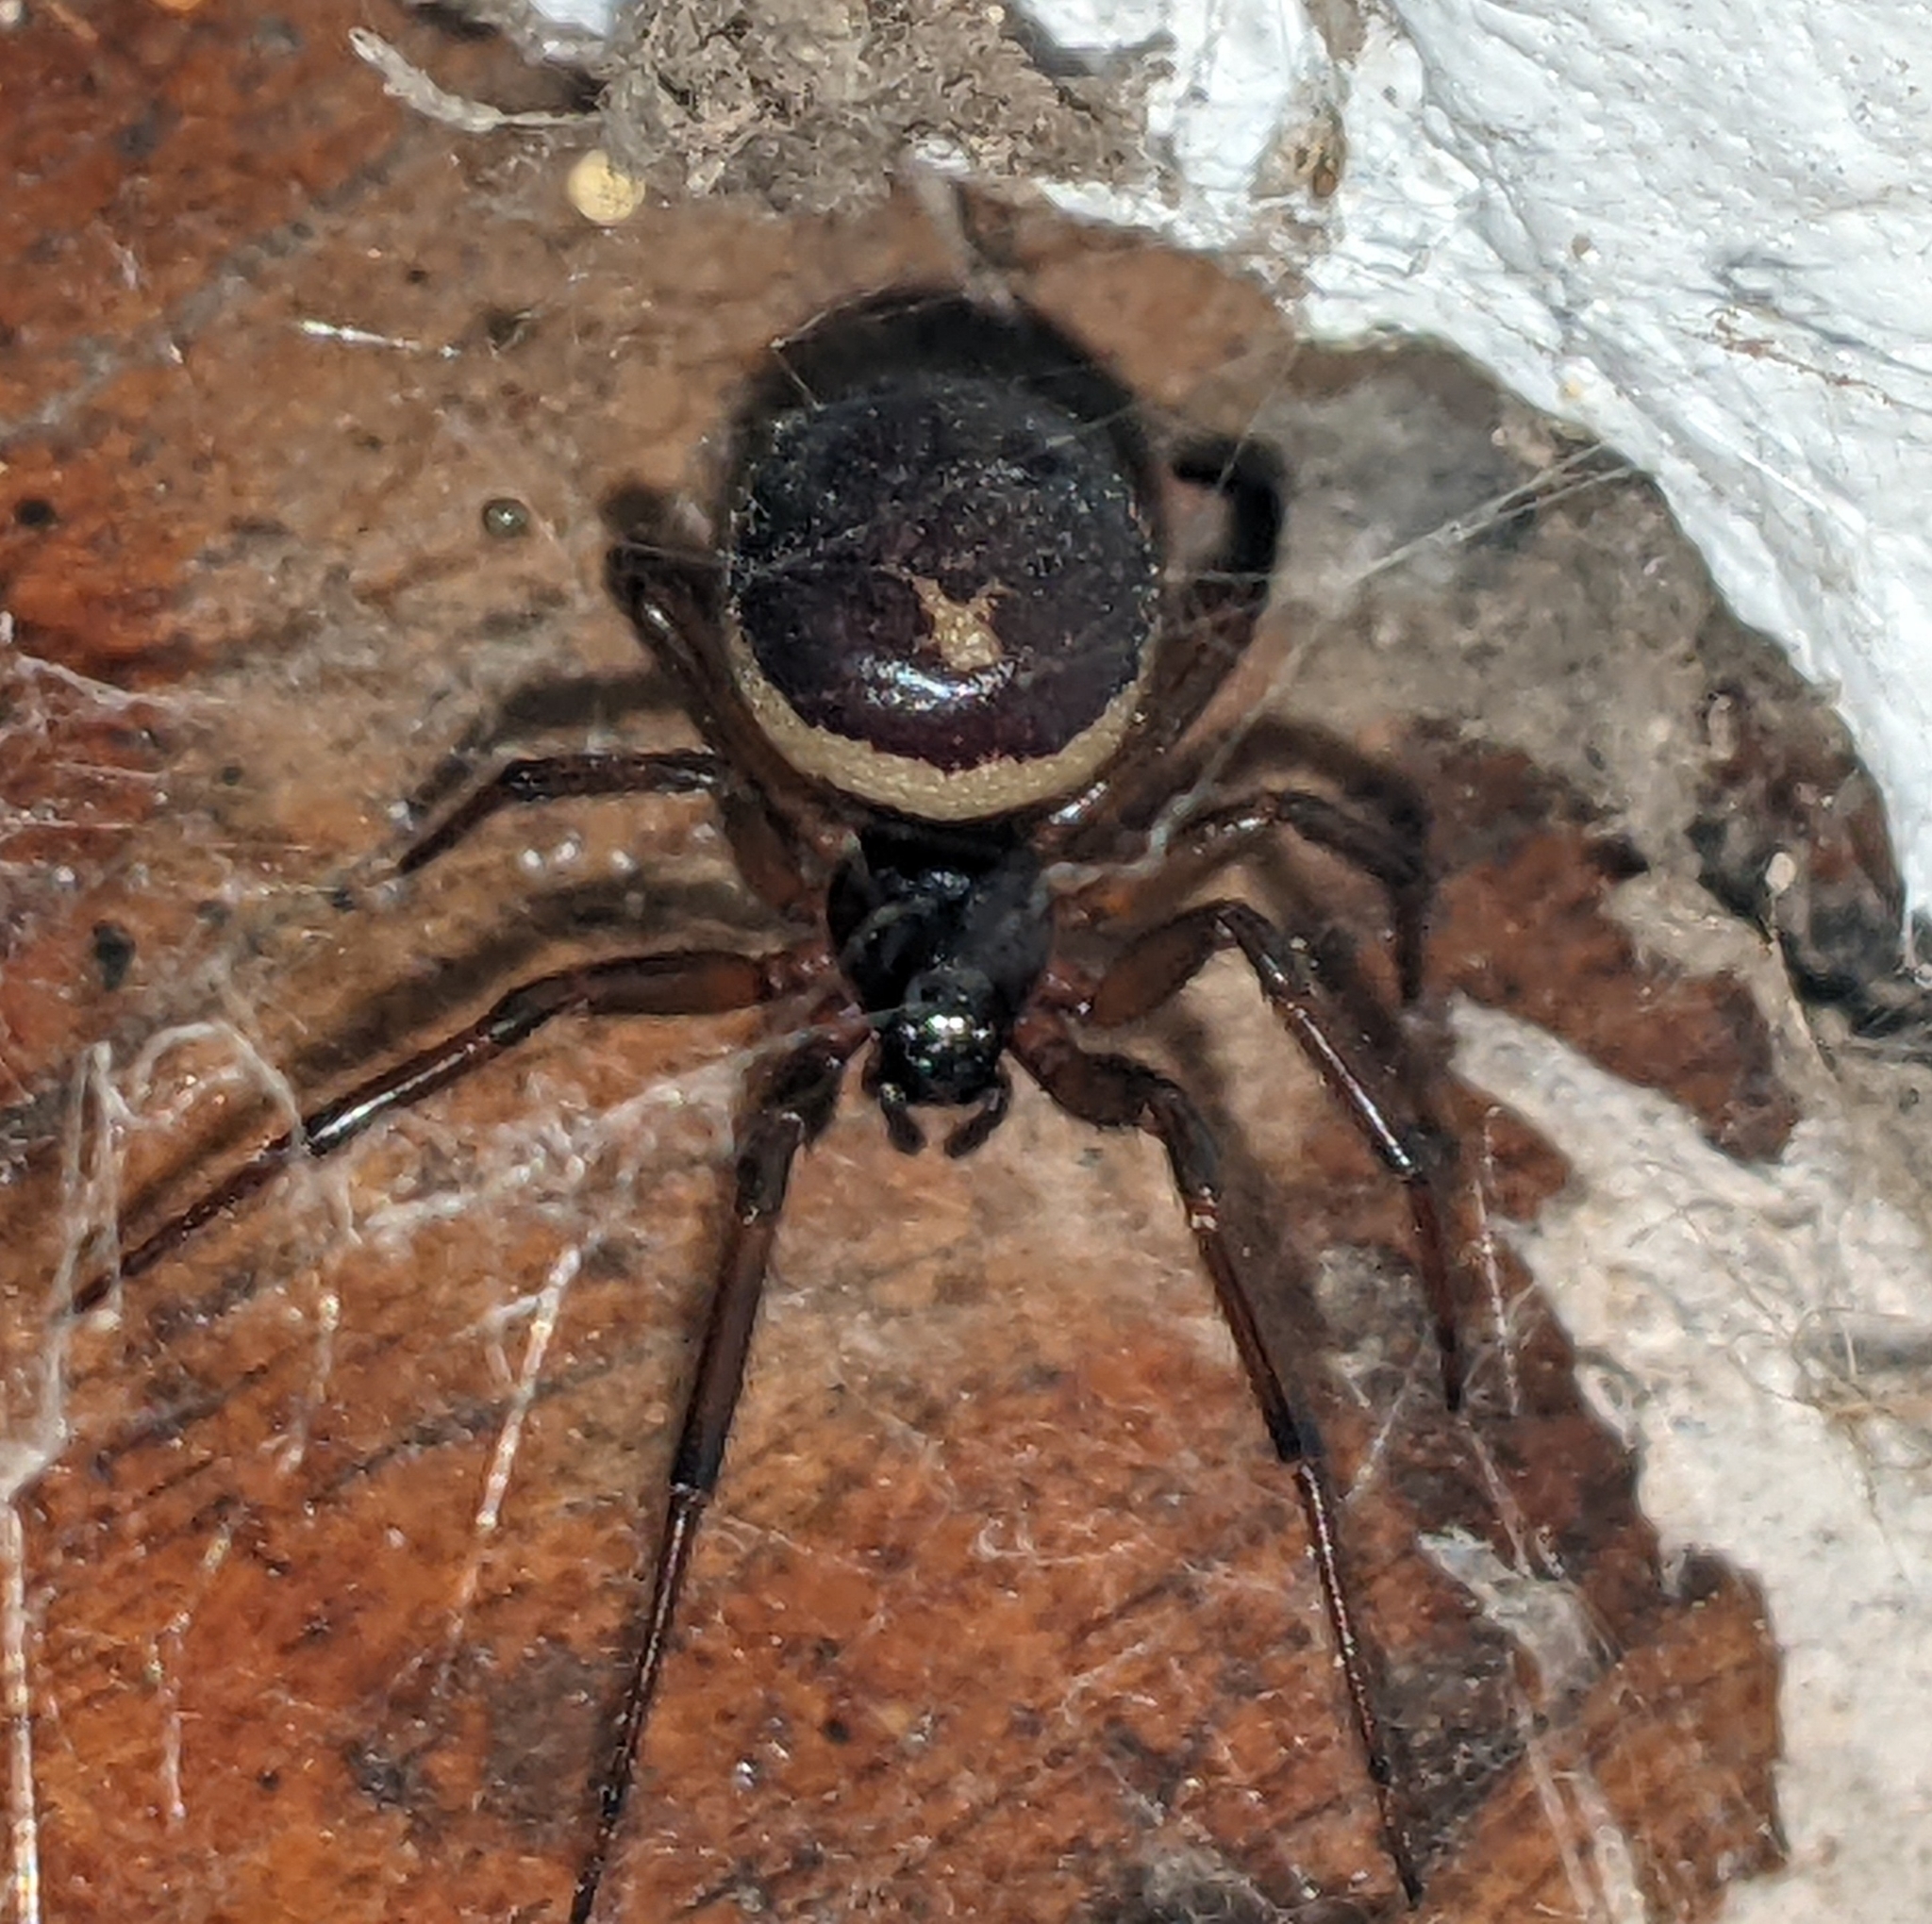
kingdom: Animalia
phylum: Arthropoda
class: Arachnida
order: Araneae
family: Theridiidae
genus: Steatoda
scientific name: Steatoda grossa
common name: False black widow
